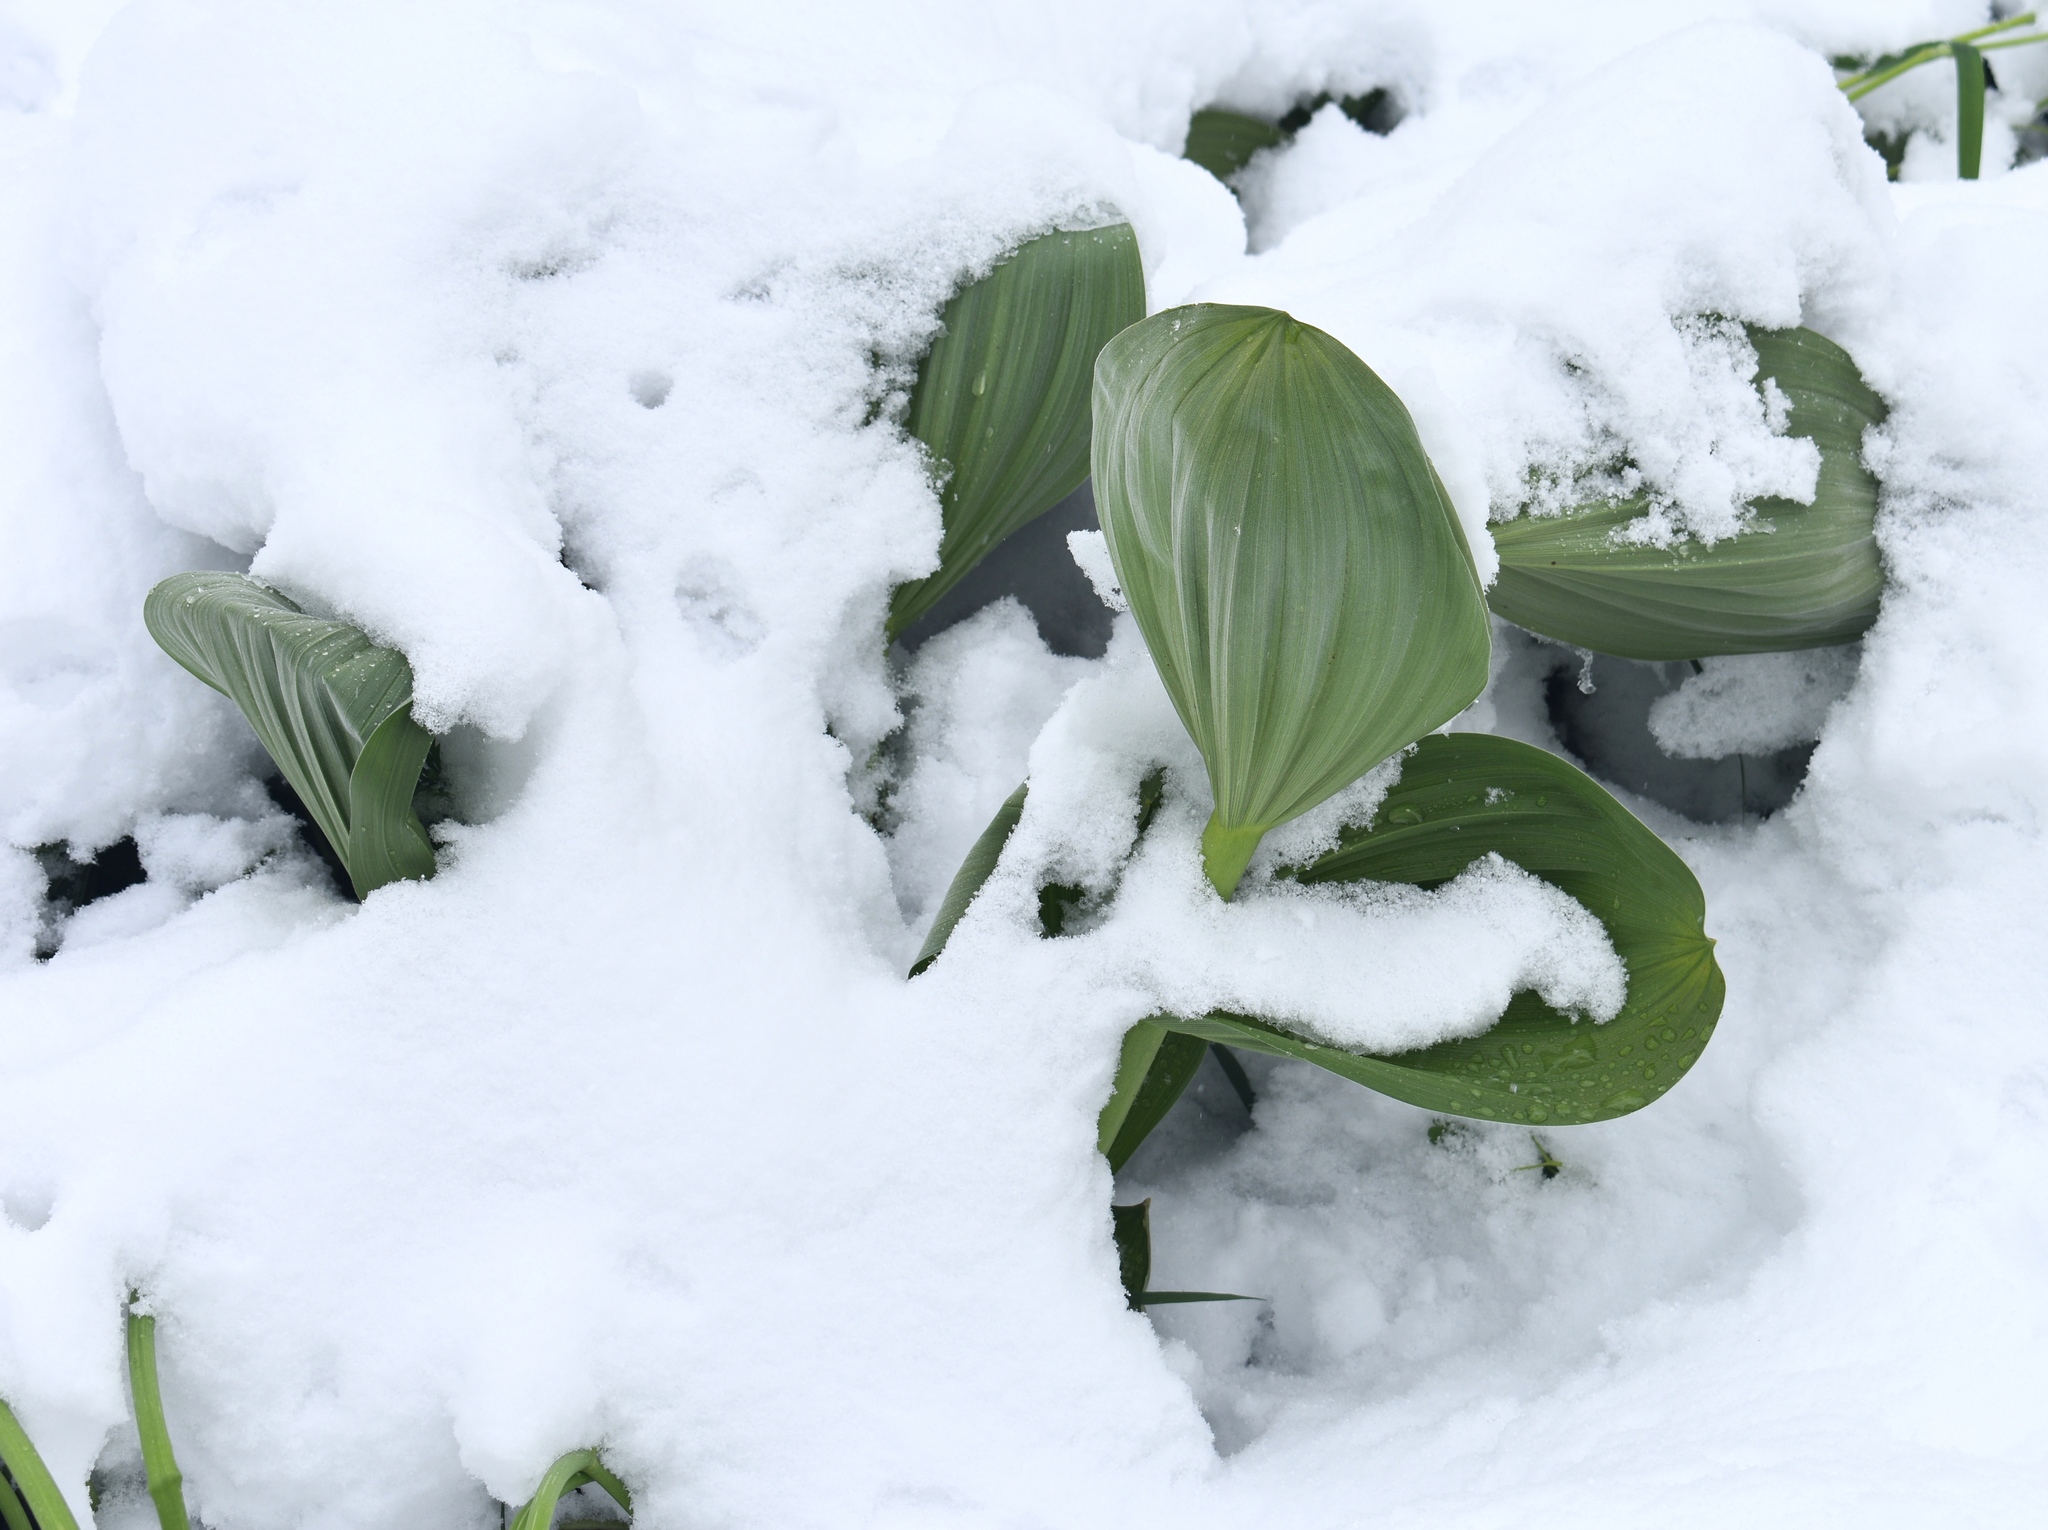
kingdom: Plantae
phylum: Tracheophyta
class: Liliopsida
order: Liliales
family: Melanthiaceae
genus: Veratrum
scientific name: Veratrum californicum
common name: California veratrum
